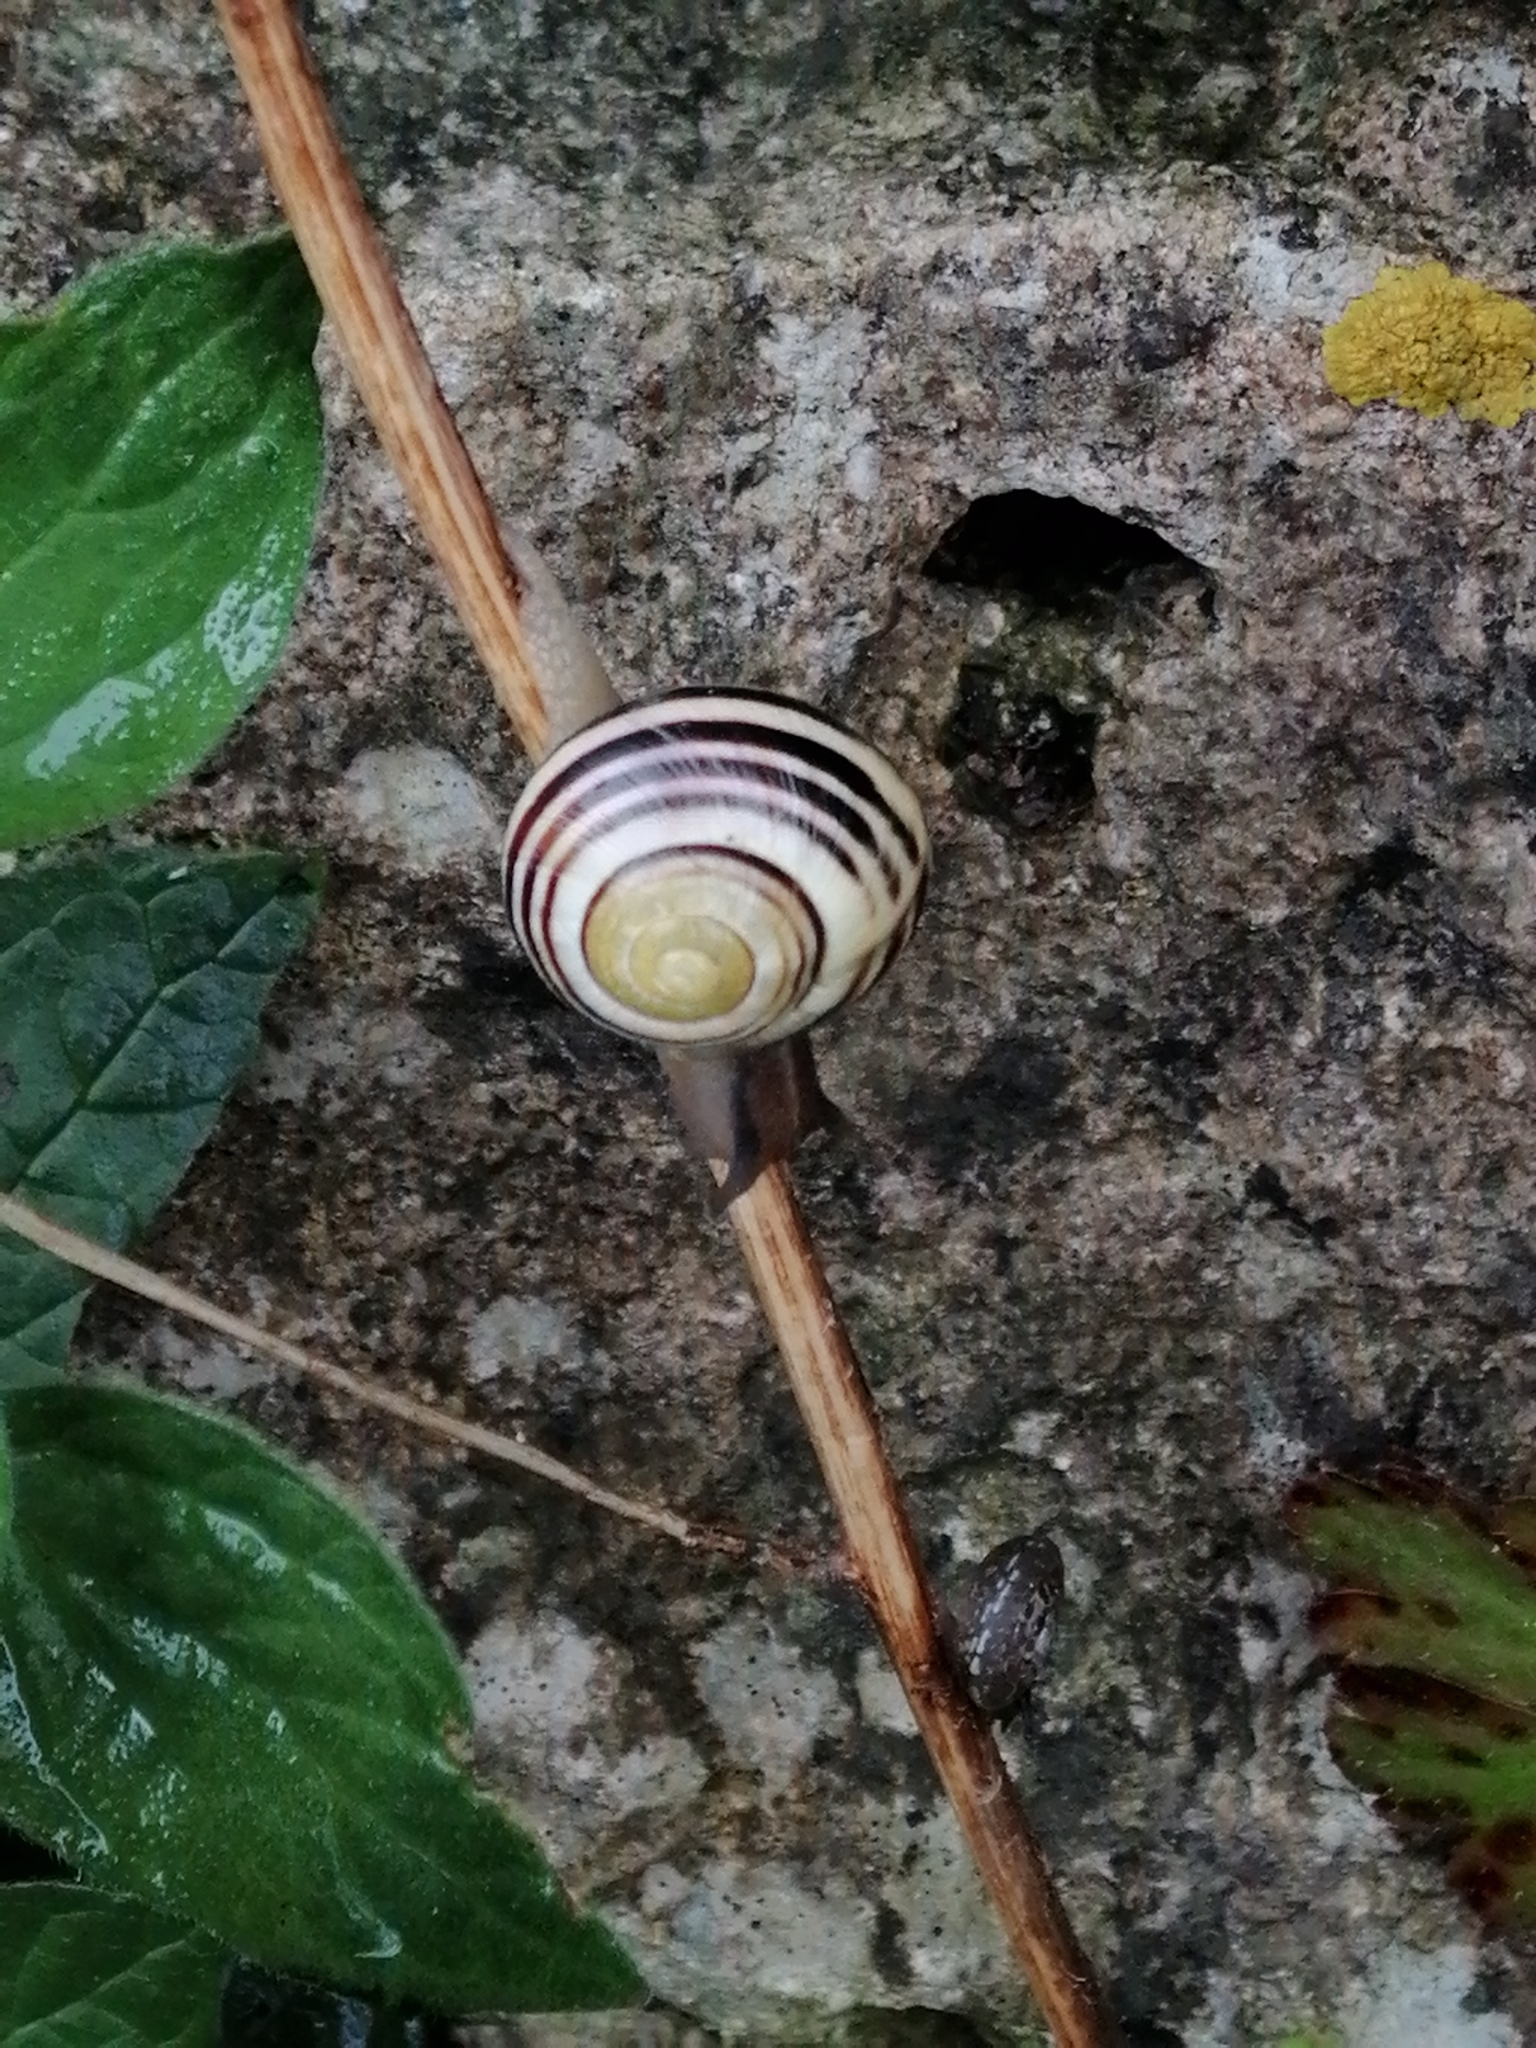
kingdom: Animalia
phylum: Mollusca
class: Gastropoda
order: Stylommatophora
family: Helicidae
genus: Cepaea
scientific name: Cepaea hortensis
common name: White-lip gardensnail
